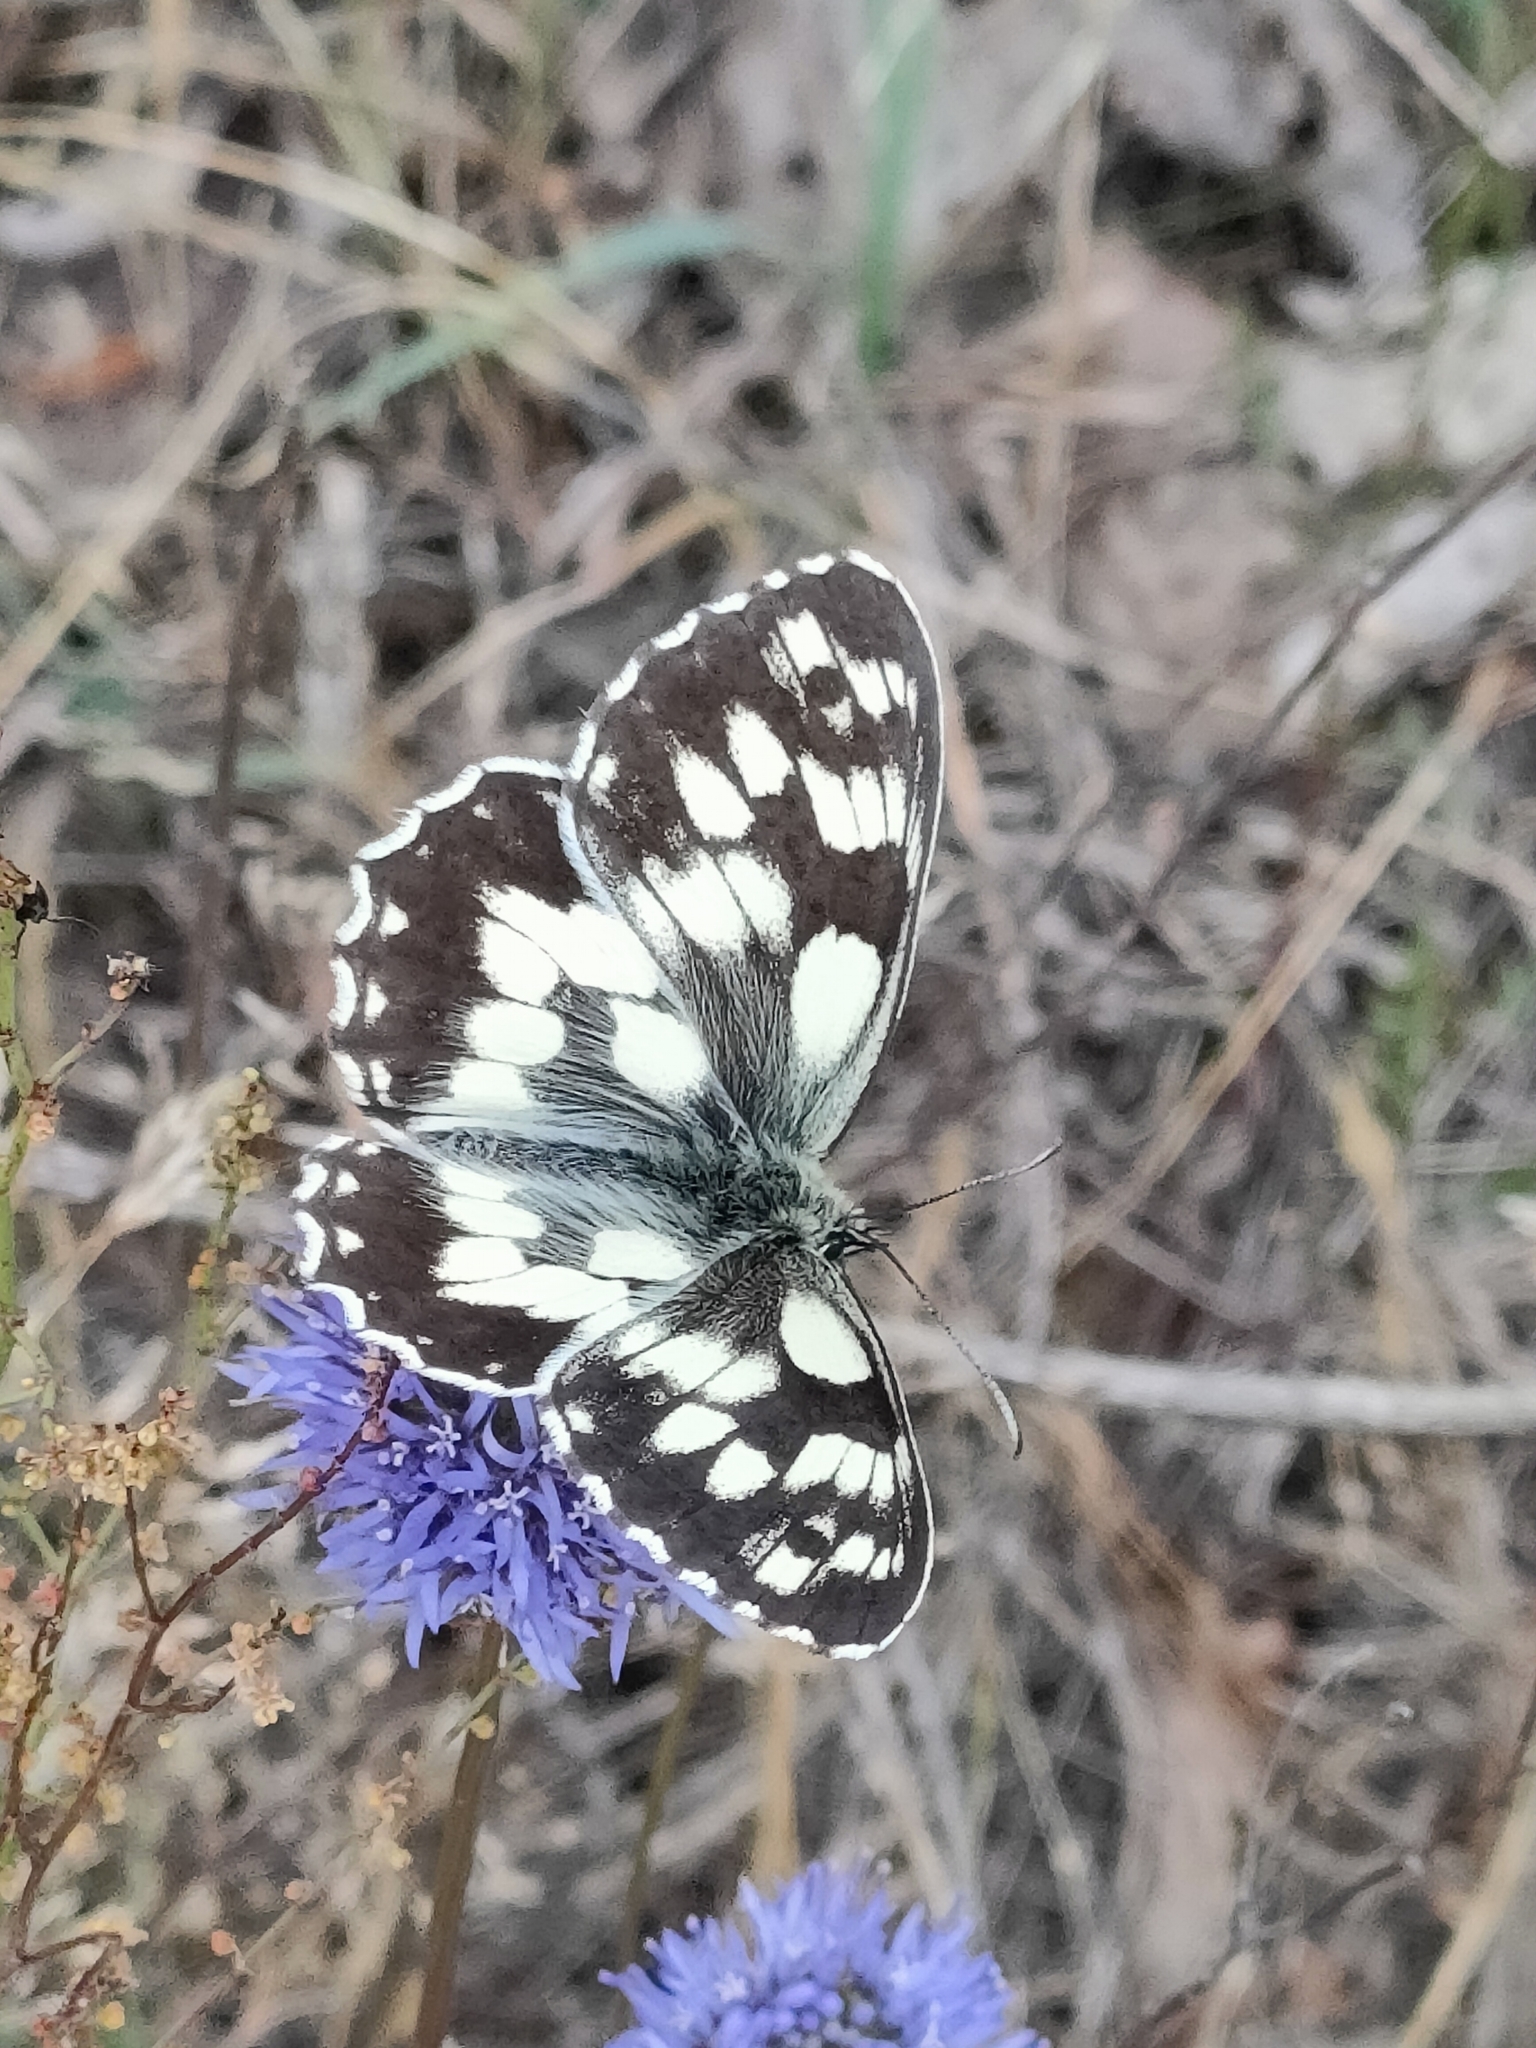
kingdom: Animalia
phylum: Arthropoda
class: Insecta
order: Lepidoptera
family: Nymphalidae
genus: Melanargia
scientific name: Melanargia galathea
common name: Marbled white
